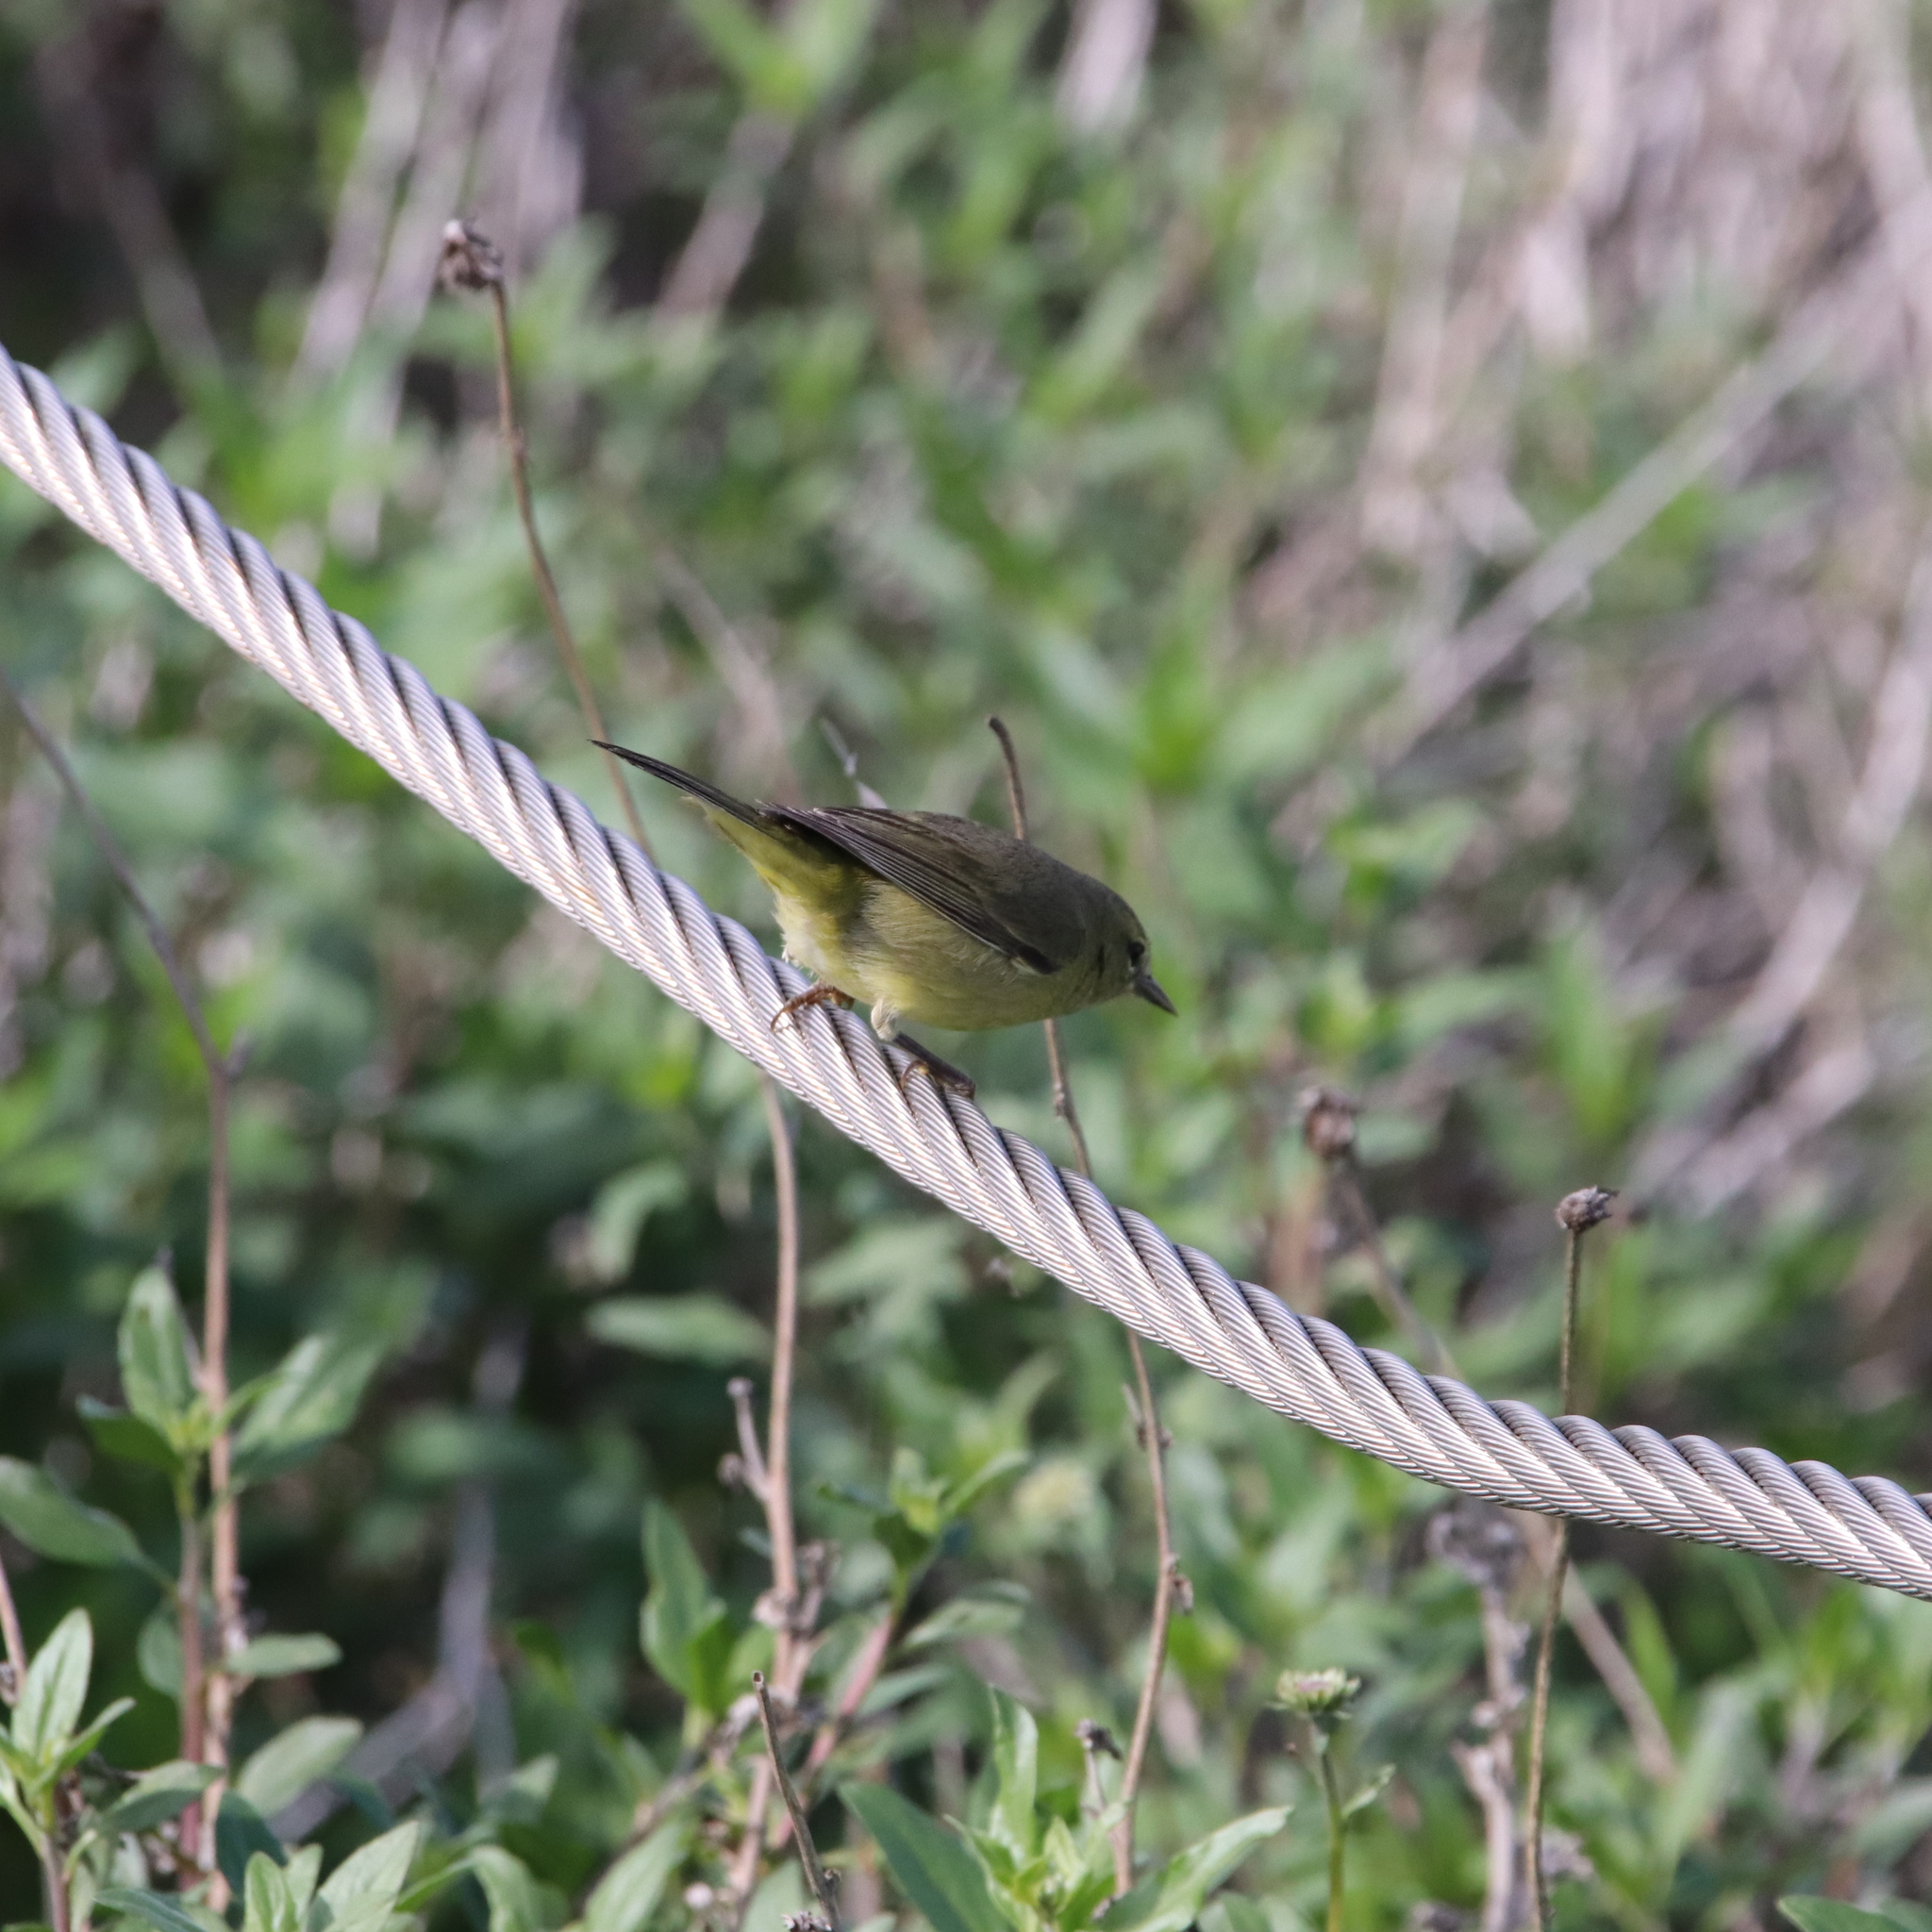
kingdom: Animalia
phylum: Chordata
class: Aves
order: Passeriformes
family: Parulidae
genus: Leiothlypis
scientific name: Leiothlypis celata
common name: Orange-crowned warbler
